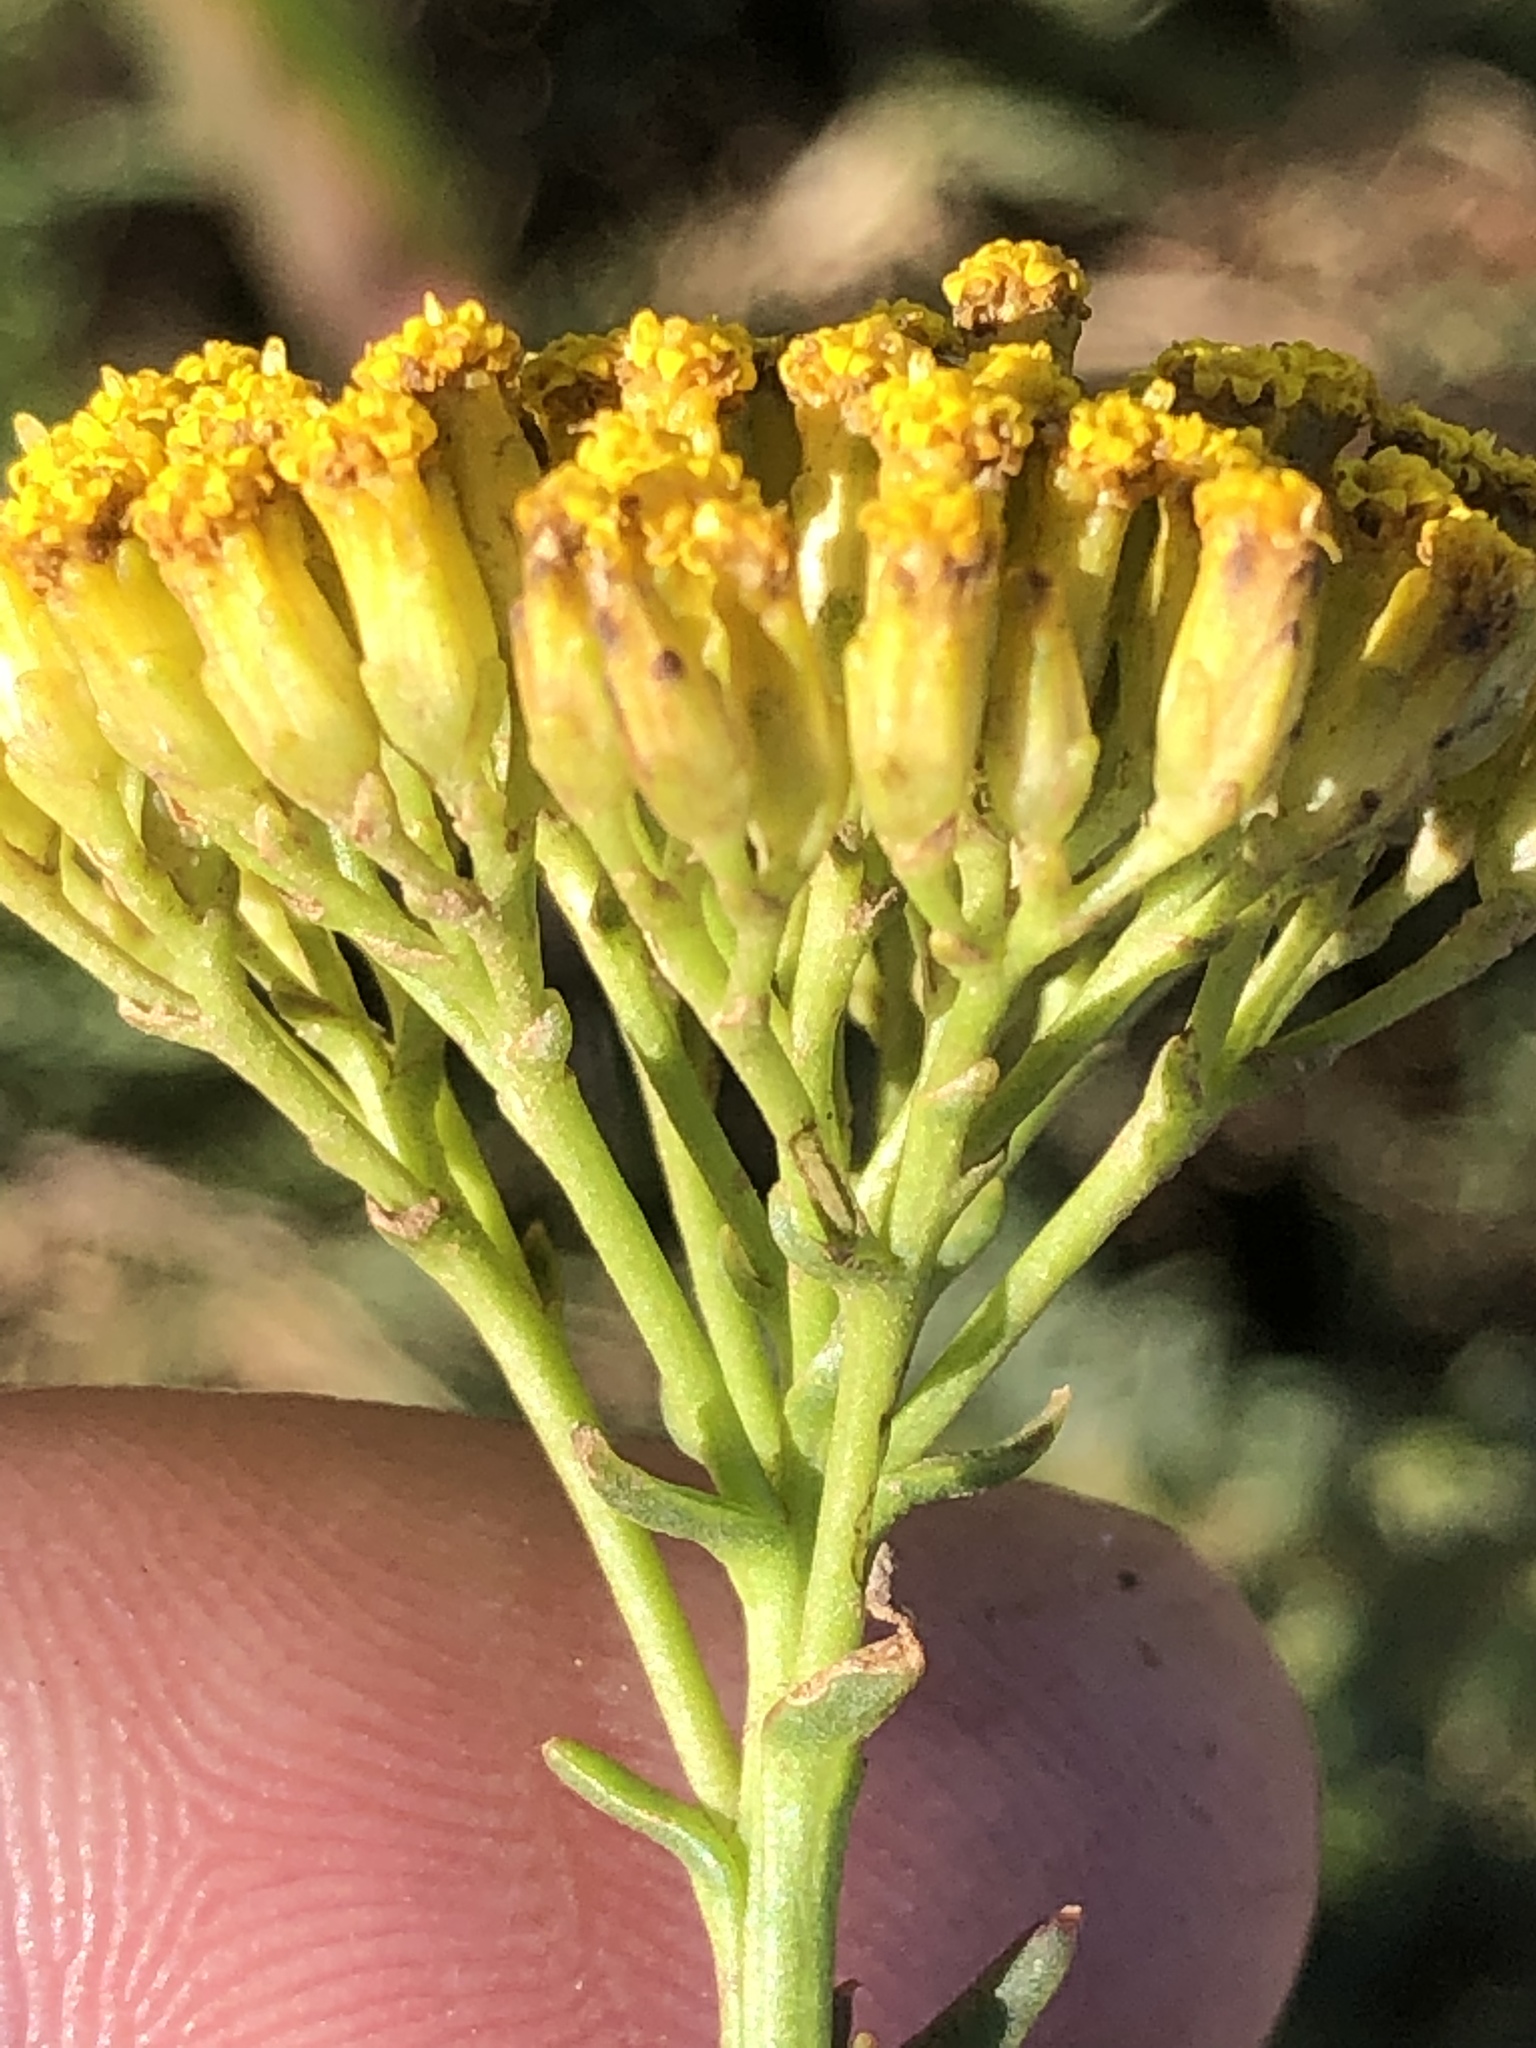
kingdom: Plantae
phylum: Tracheophyta
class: Magnoliopsida
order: Asterales
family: Asteraceae
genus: Athanasia
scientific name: Athanasia juncea
